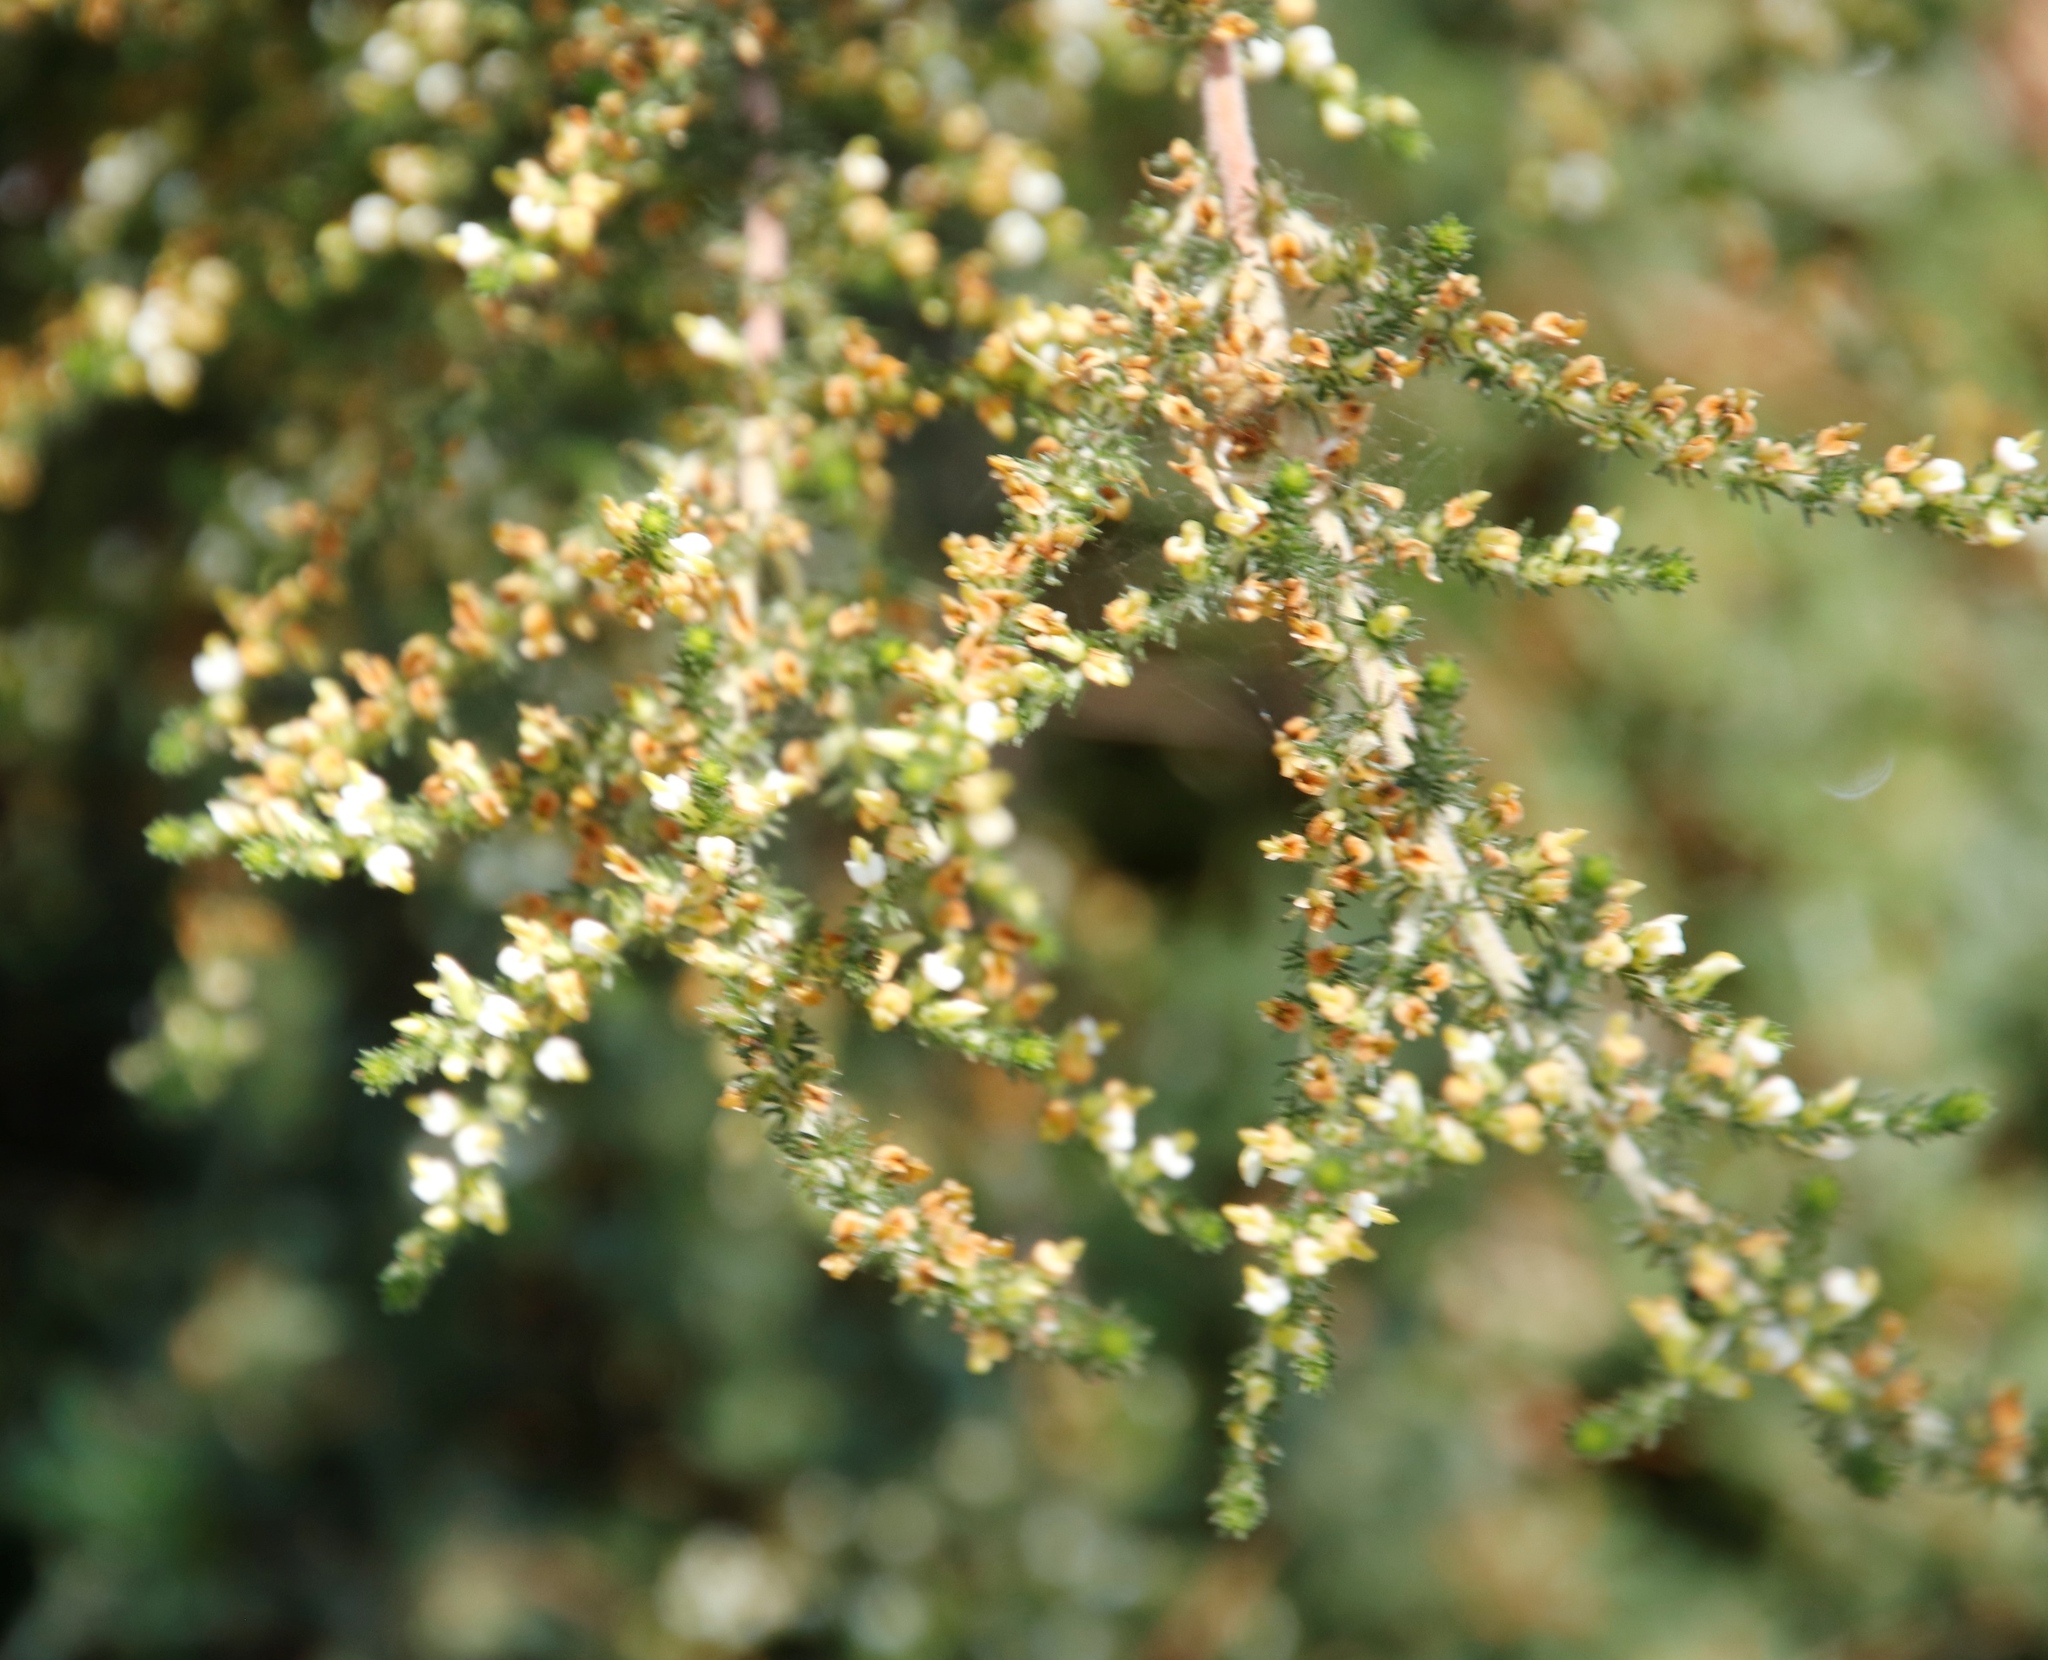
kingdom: Plantae
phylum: Tracheophyta
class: Magnoliopsida
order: Fabales
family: Fabaceae
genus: Aspalathus
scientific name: Aspalathus hispida
